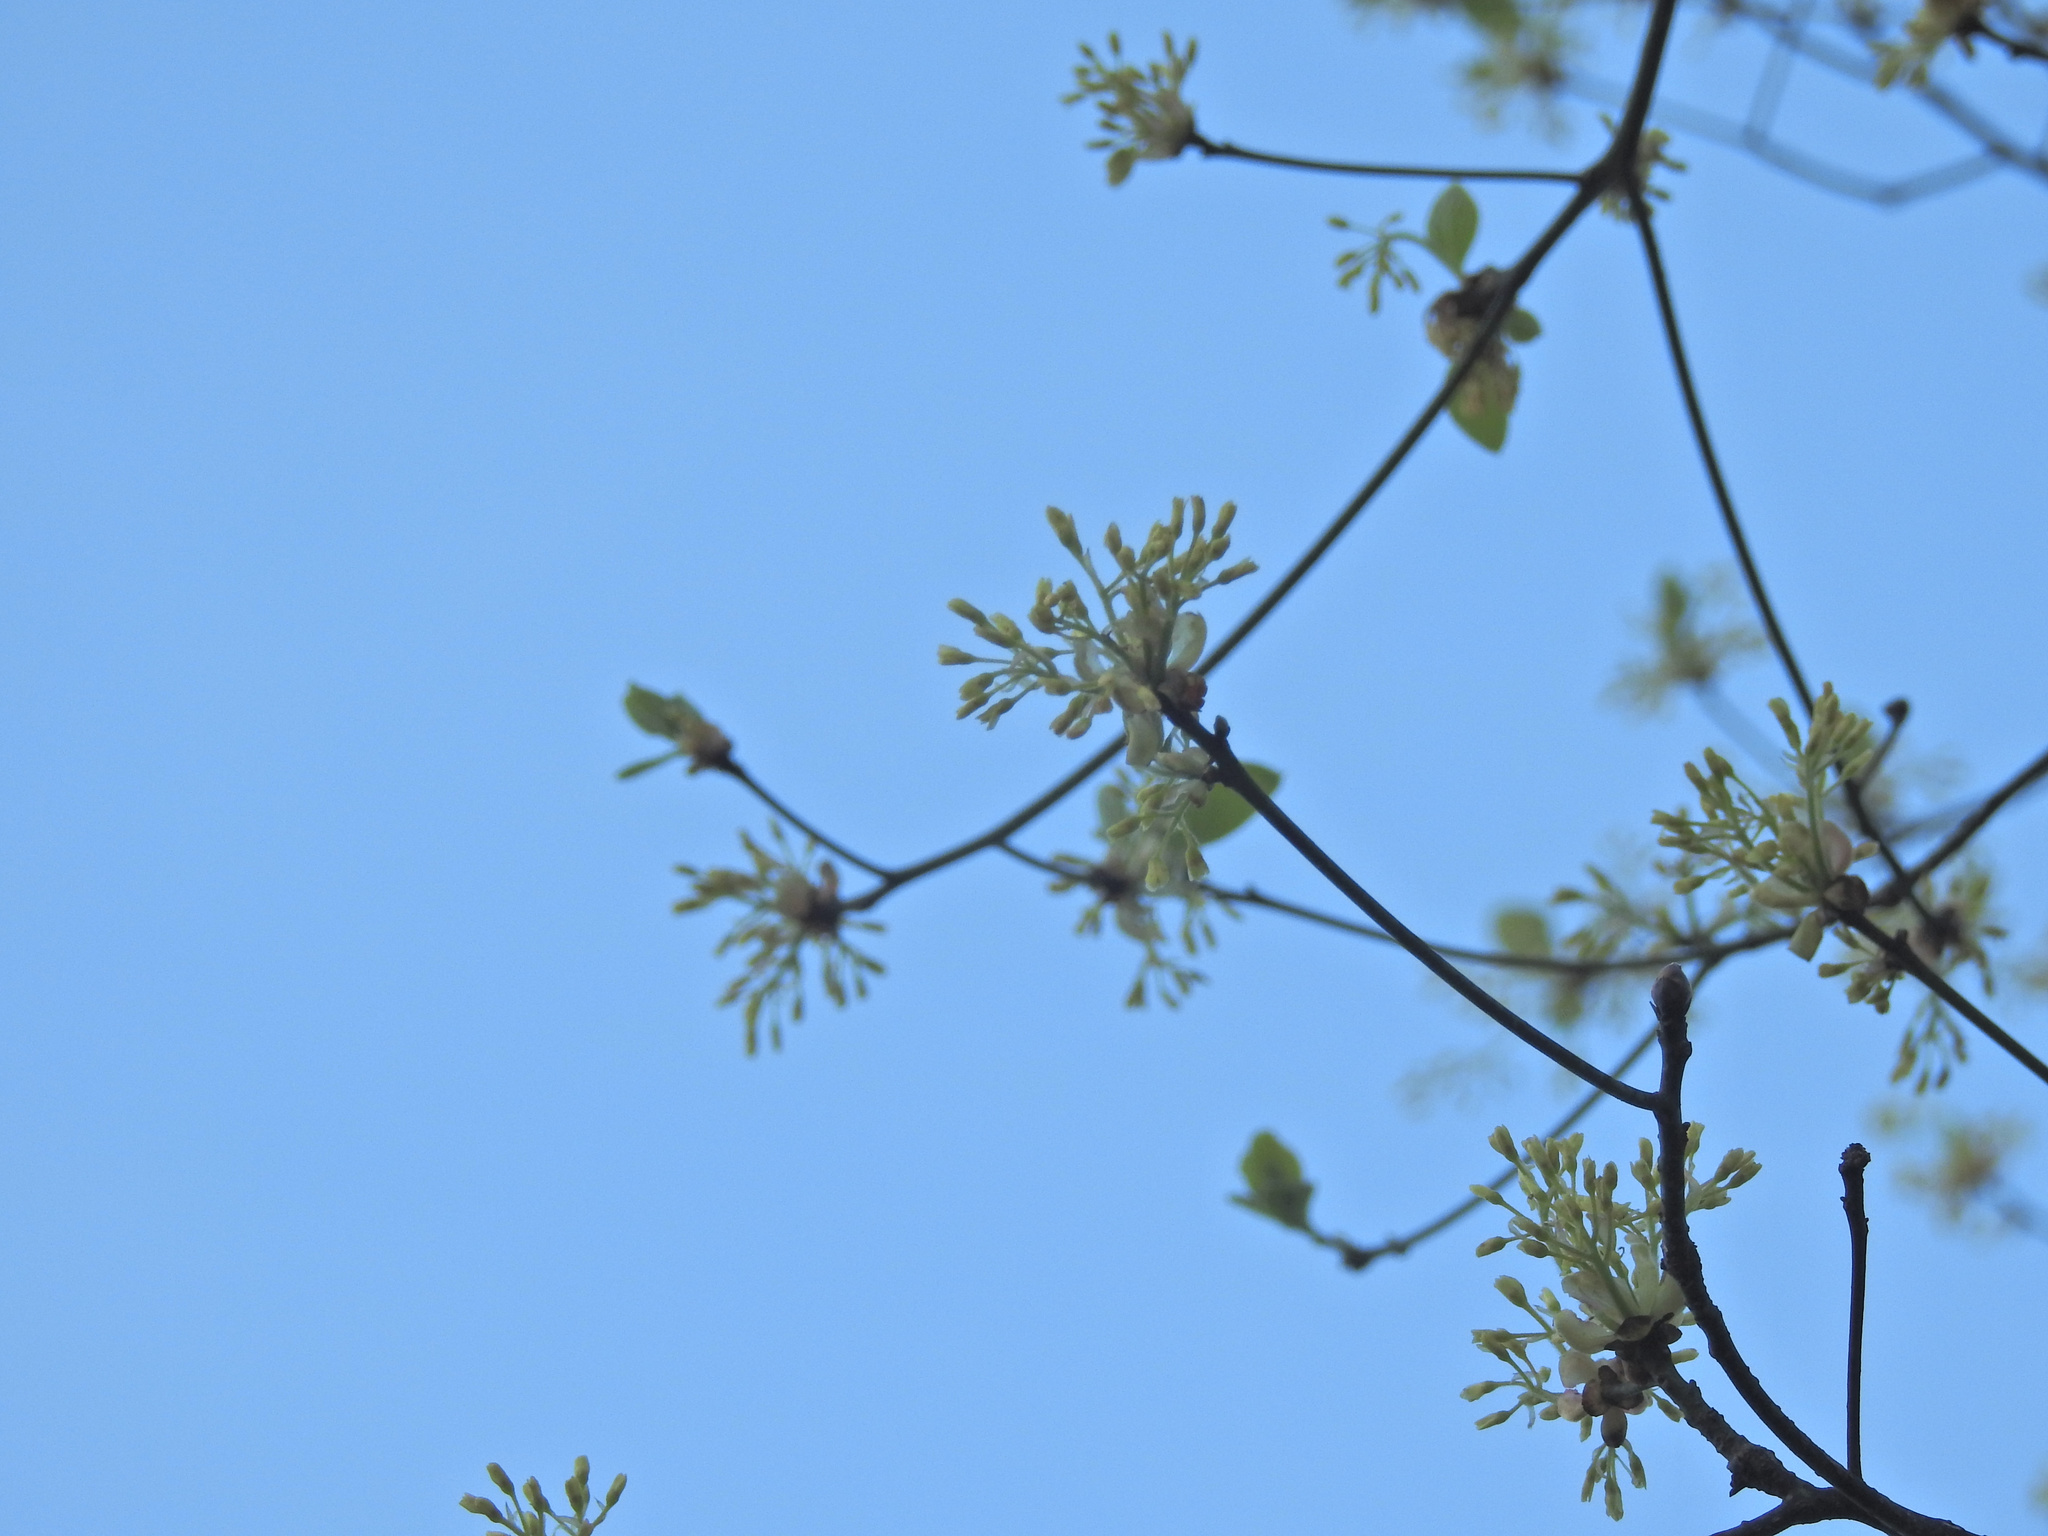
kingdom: Plantae
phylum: Tracheophyta
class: Magnoliopsida
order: Laurales
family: Lauraceae
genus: Sassafras
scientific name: Sassafras albidum
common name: Sassafras
